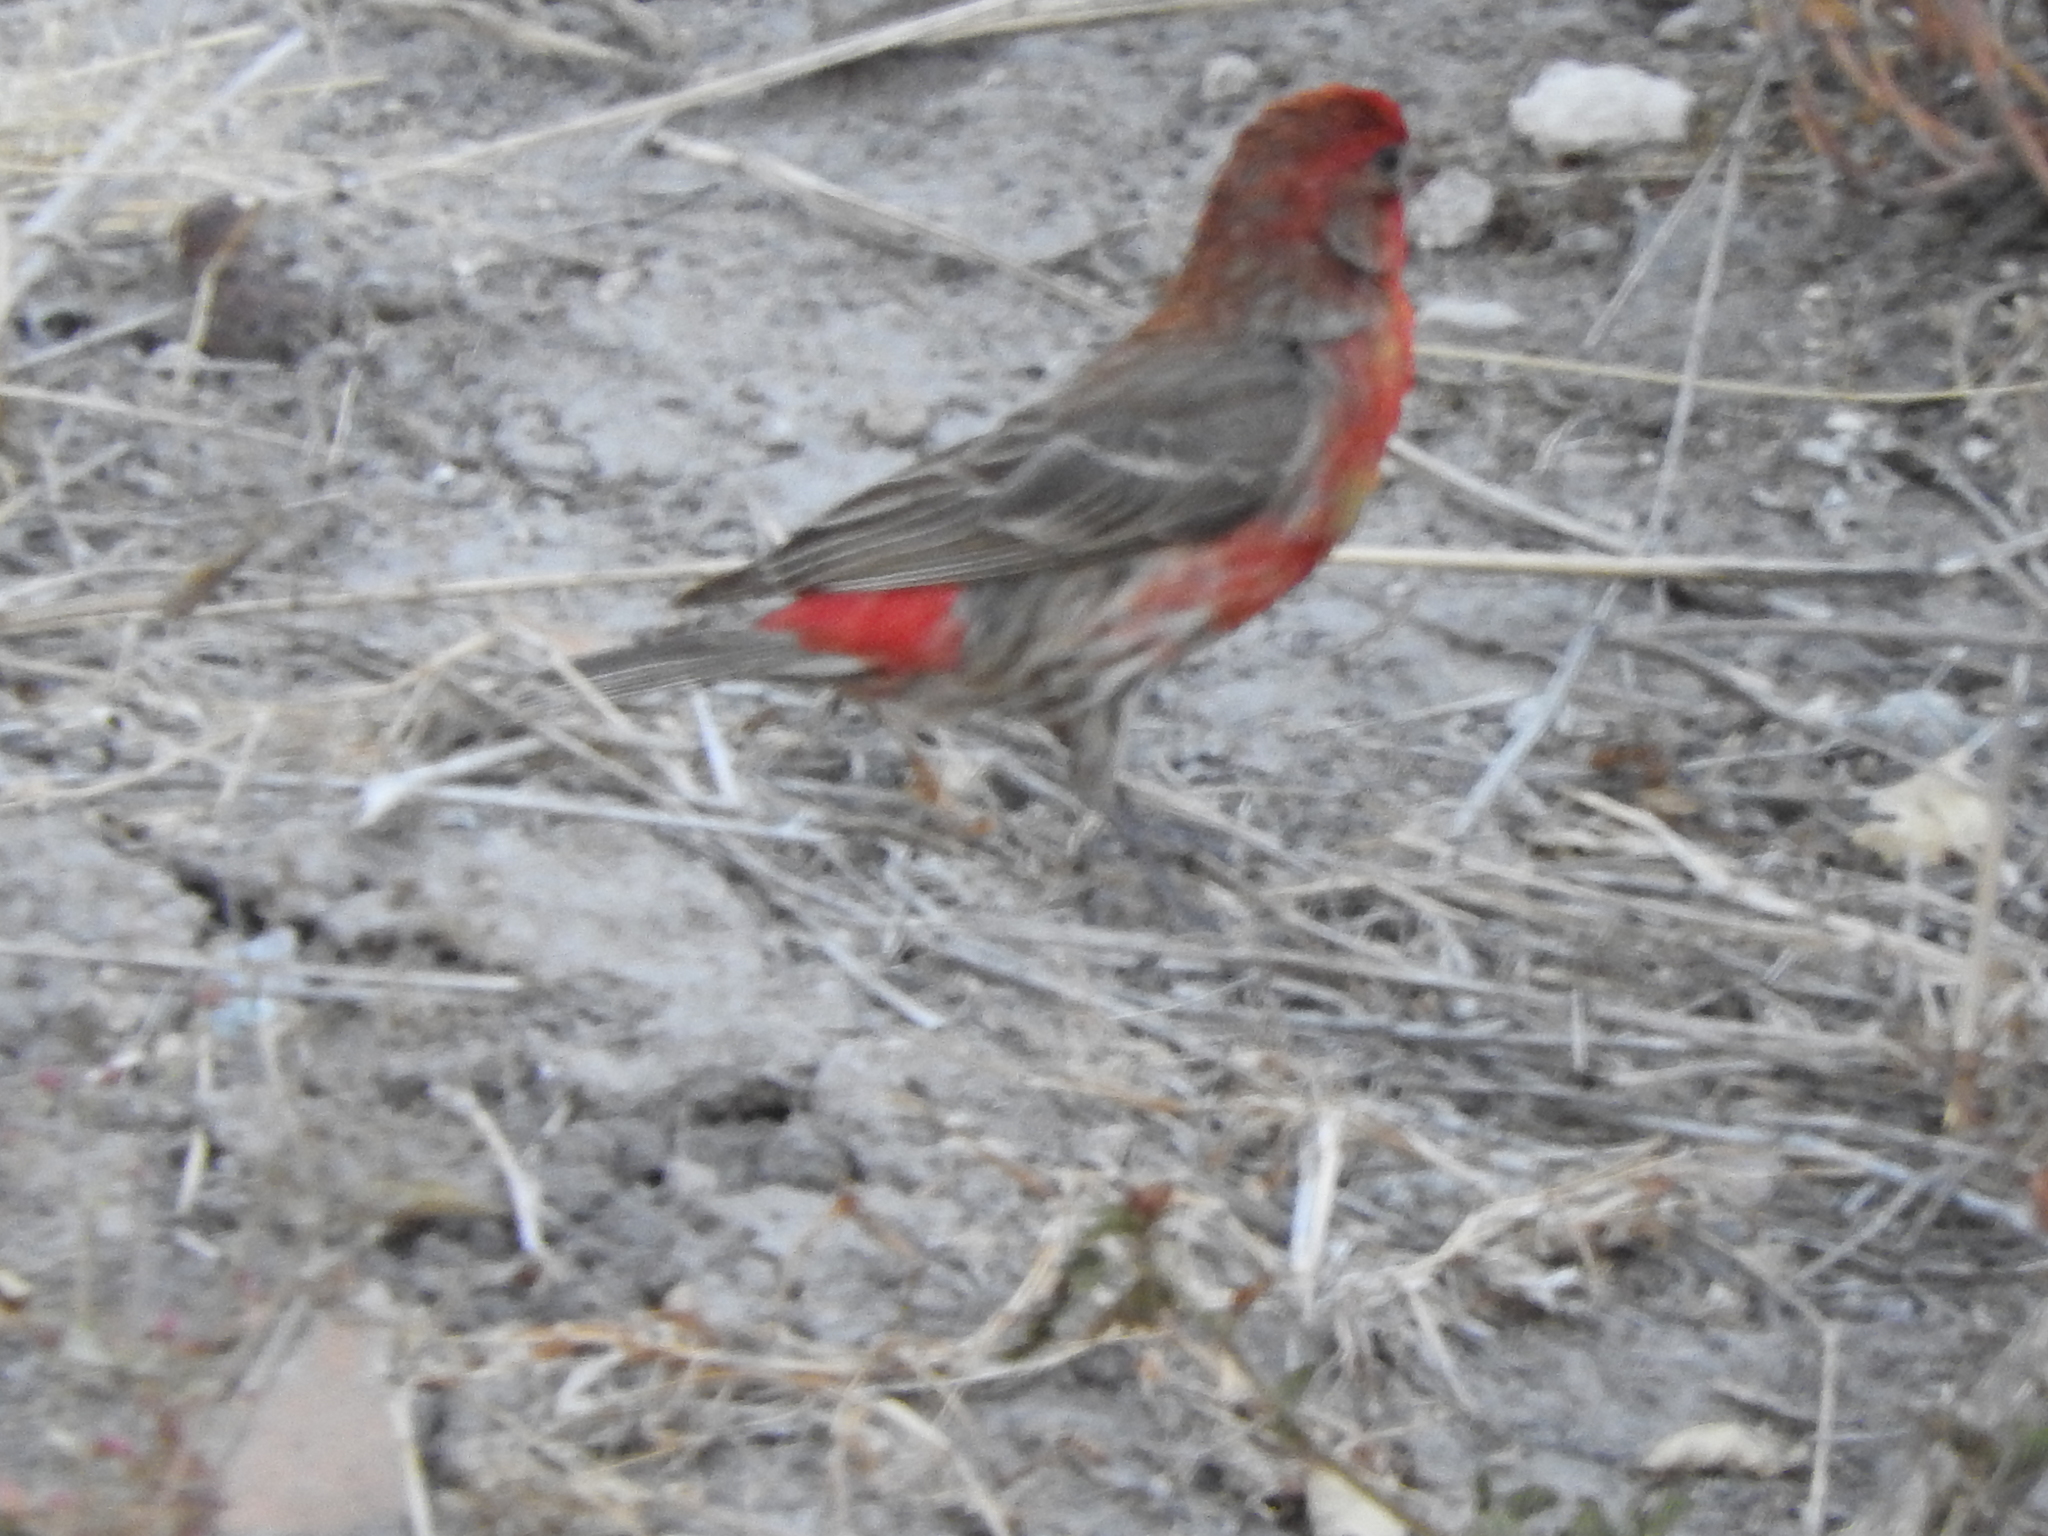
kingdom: Animalia
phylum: Chordata
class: Aves
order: Passeriformes
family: Fringillidae
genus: Haemorhous
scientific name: Haemorhous mexicanus
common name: House finch
